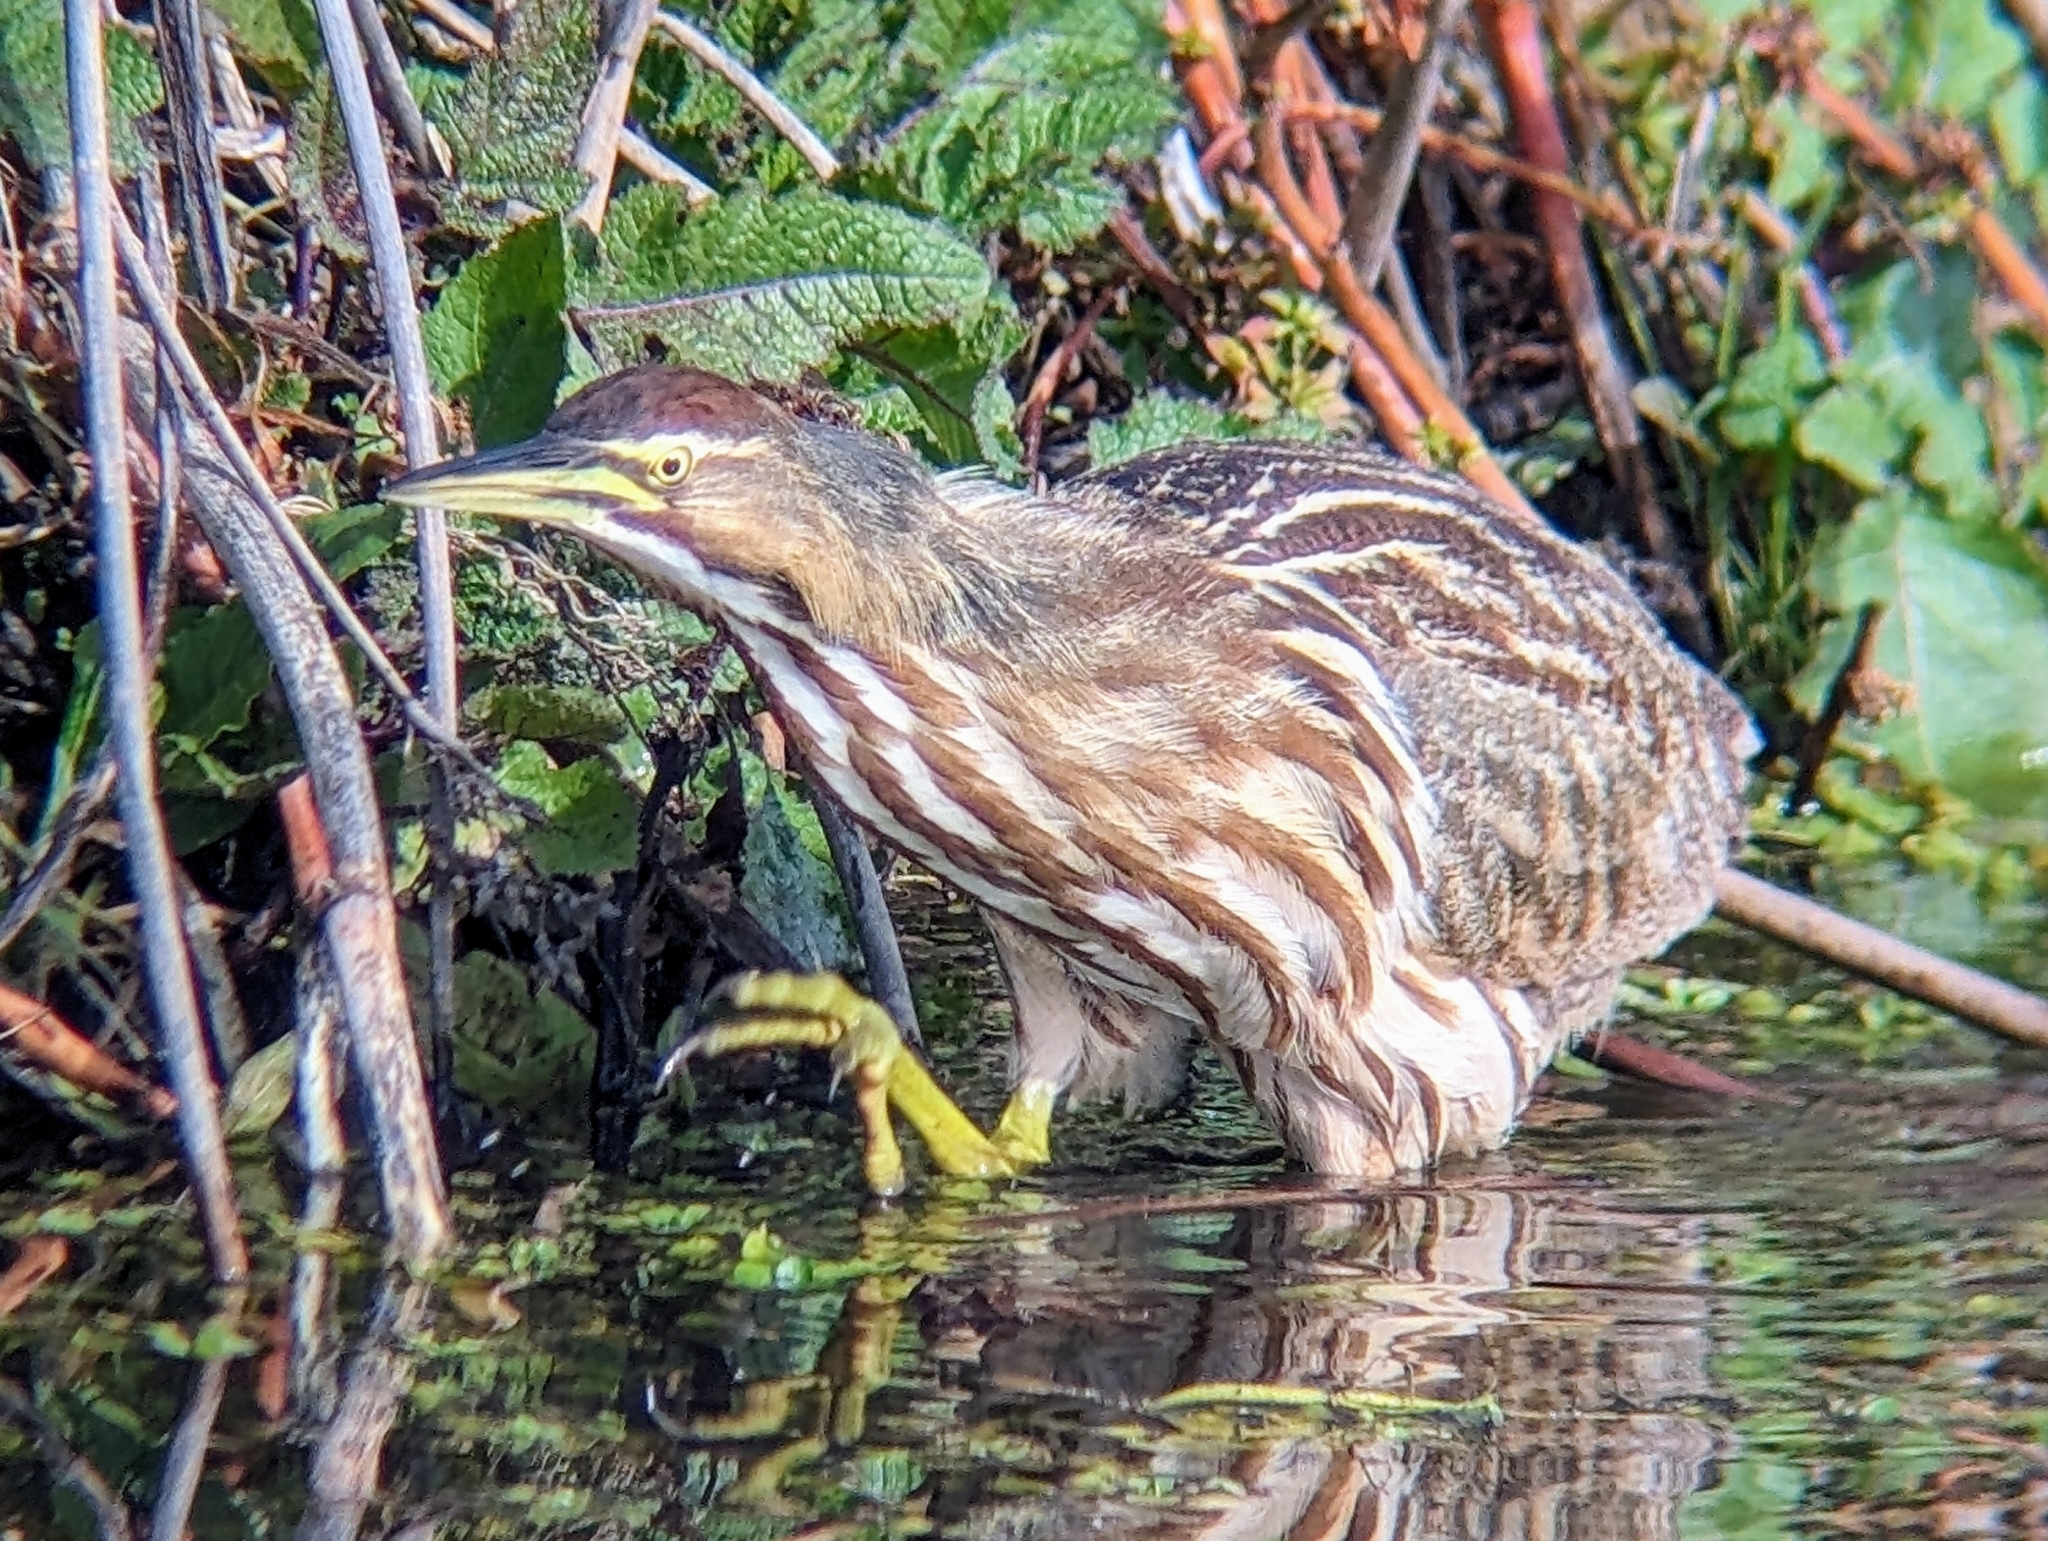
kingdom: Animalia
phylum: Chordata
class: Aves
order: Pelecaniformes
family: Ardeidae
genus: Botaurus
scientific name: Botaurus lentiginosus
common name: American bittern
